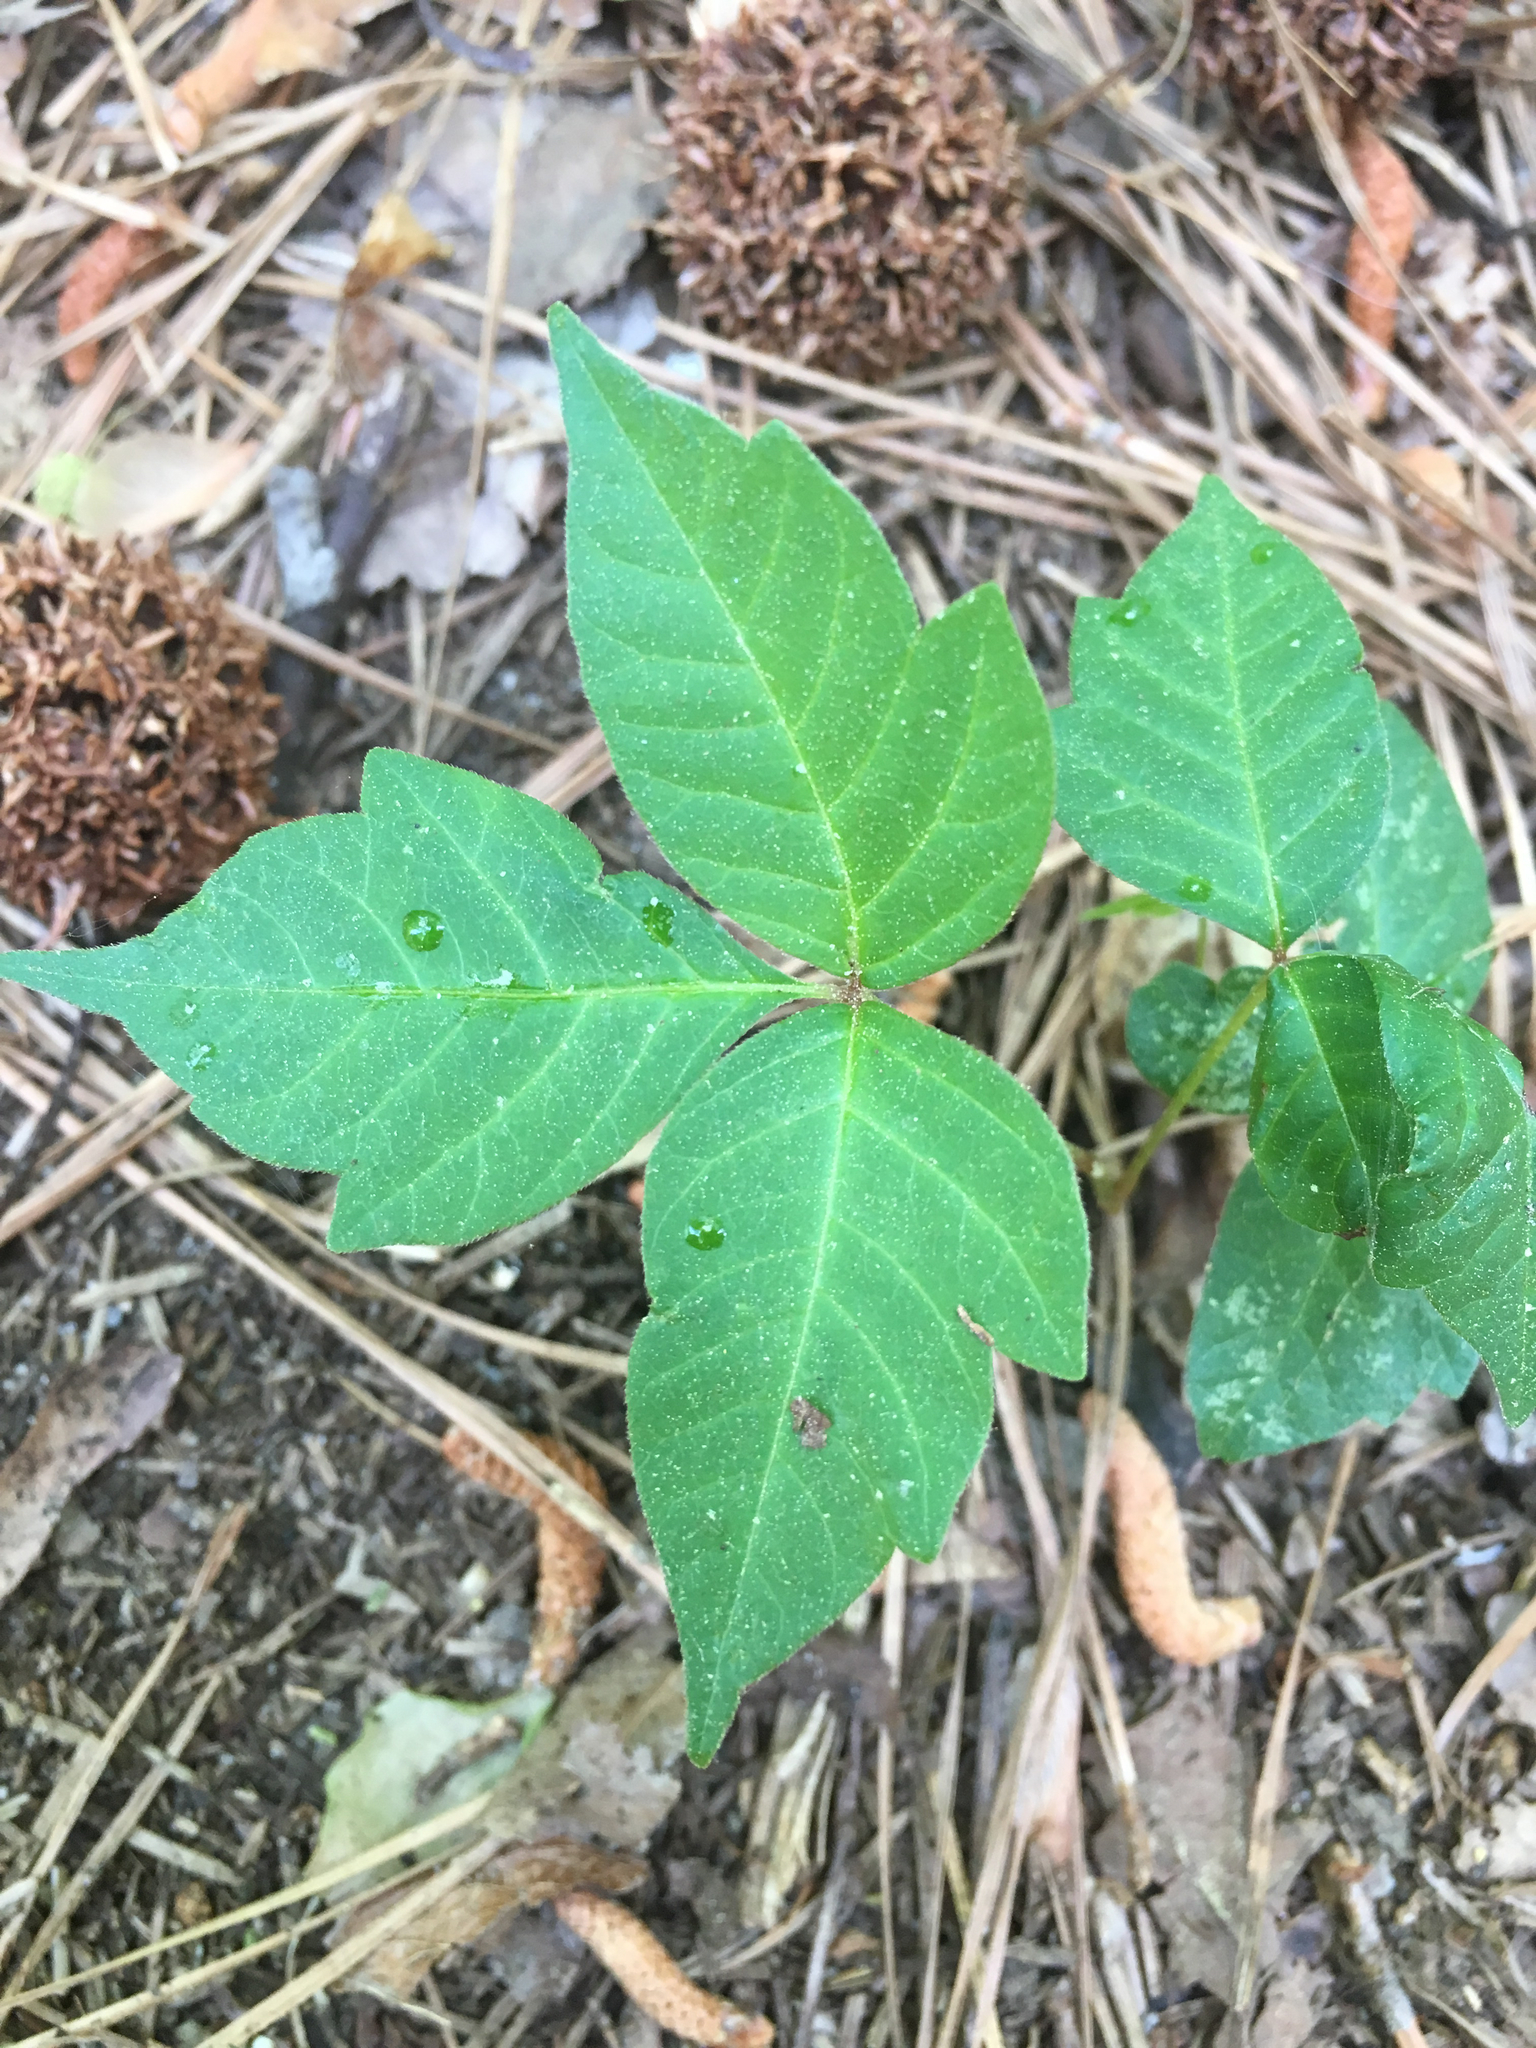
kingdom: Plantae
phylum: Tracheophyta
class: Magnoliopsida
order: Sapindales
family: Anacardiaceae
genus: Toxicodendron
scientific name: Toxicodendron radicans
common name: Poison ivy
